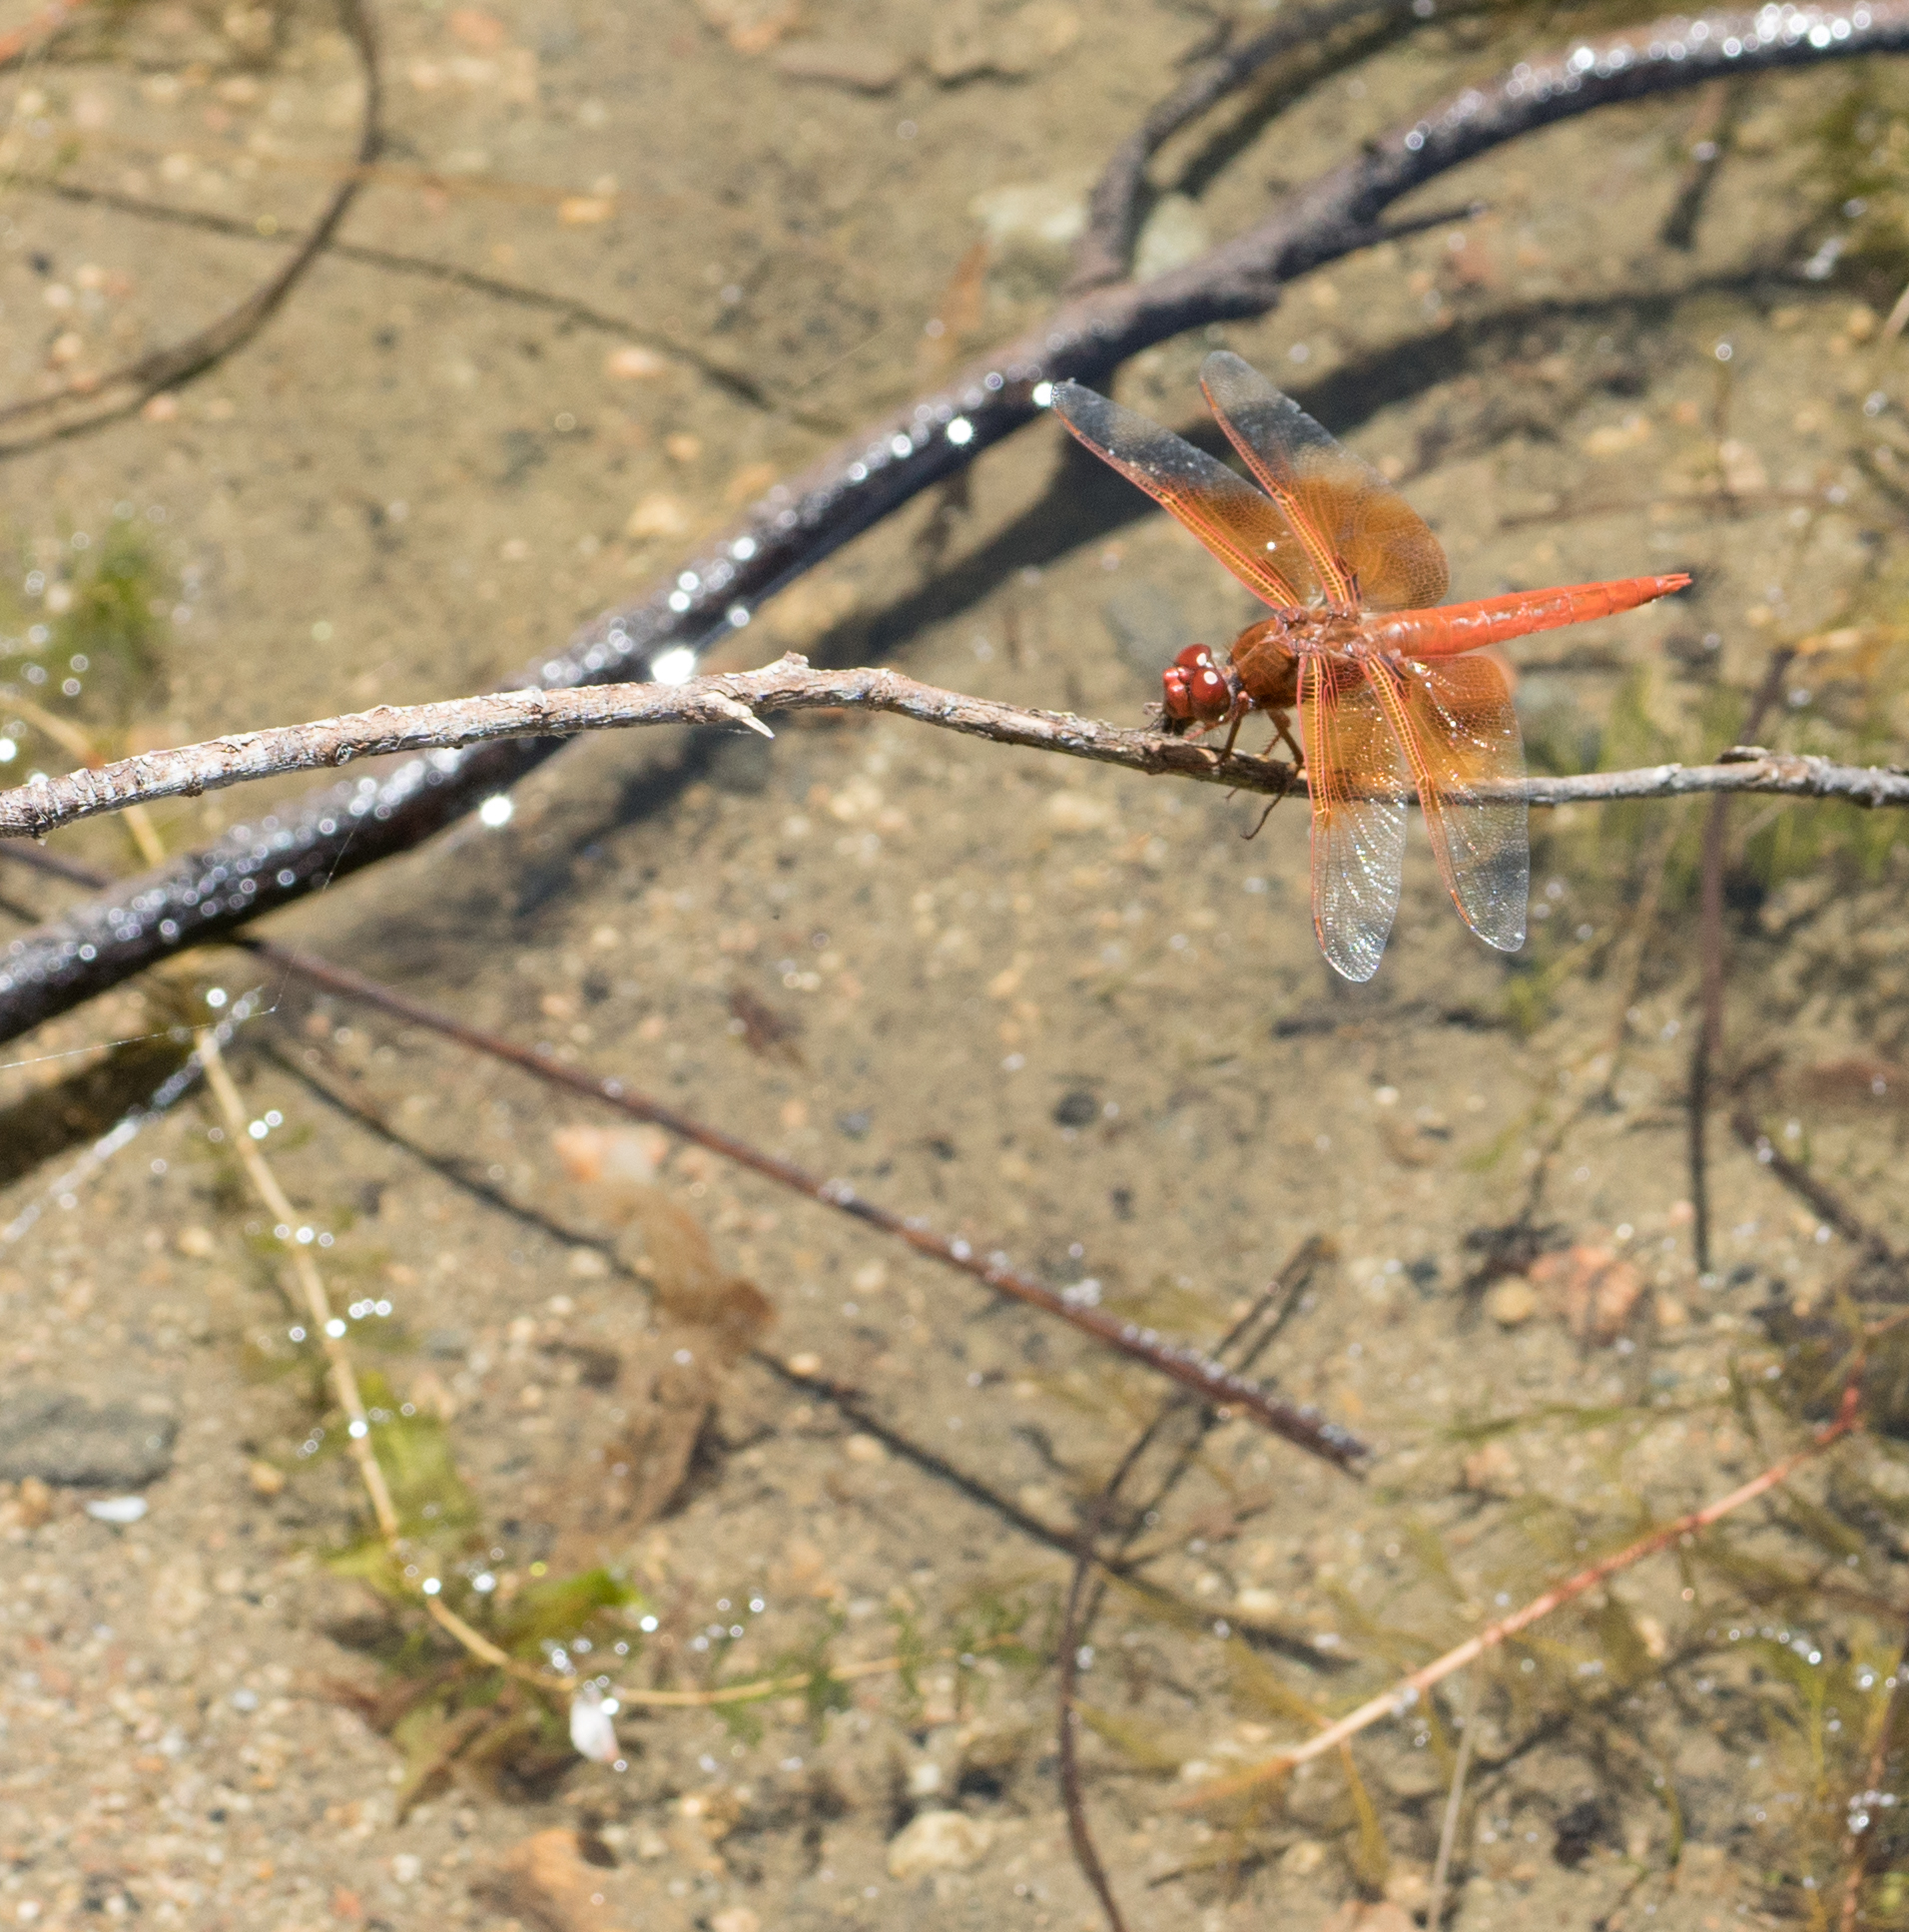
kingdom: Animalia
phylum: Arthropoda
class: Insecta
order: Odonata
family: Libellulidae
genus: Libellula
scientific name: Libellula saturata
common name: Flame skimmer
